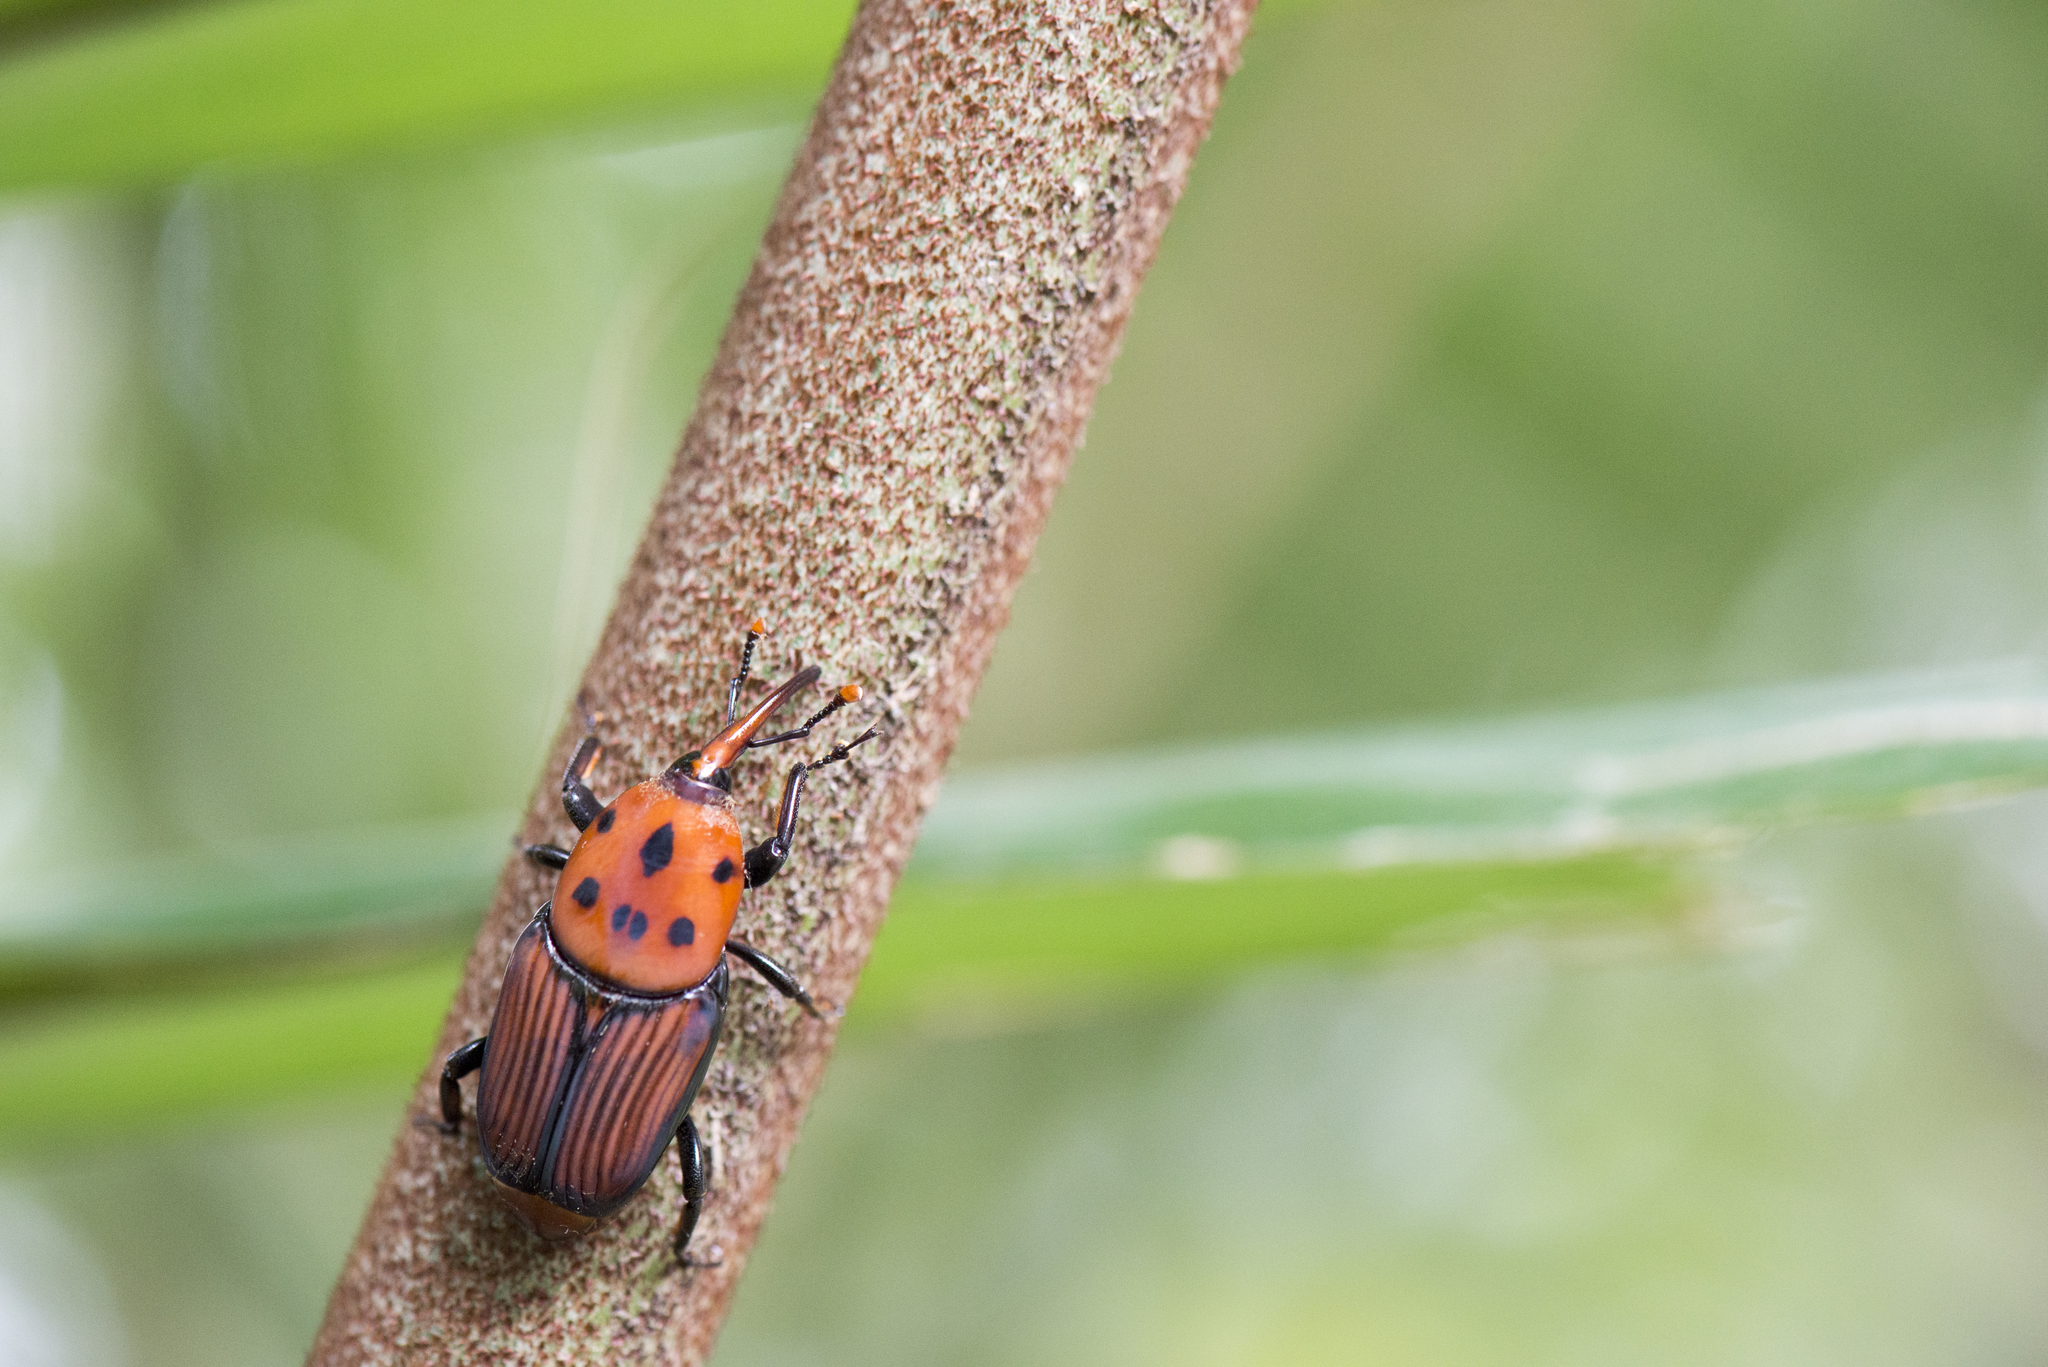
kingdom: Animalia
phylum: Arthropoda
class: Insecta
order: Coleoptera
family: Dryophthoridae
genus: Rhynchophorus
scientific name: Rhynchophorus ferrugineus
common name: Red palm weevil
